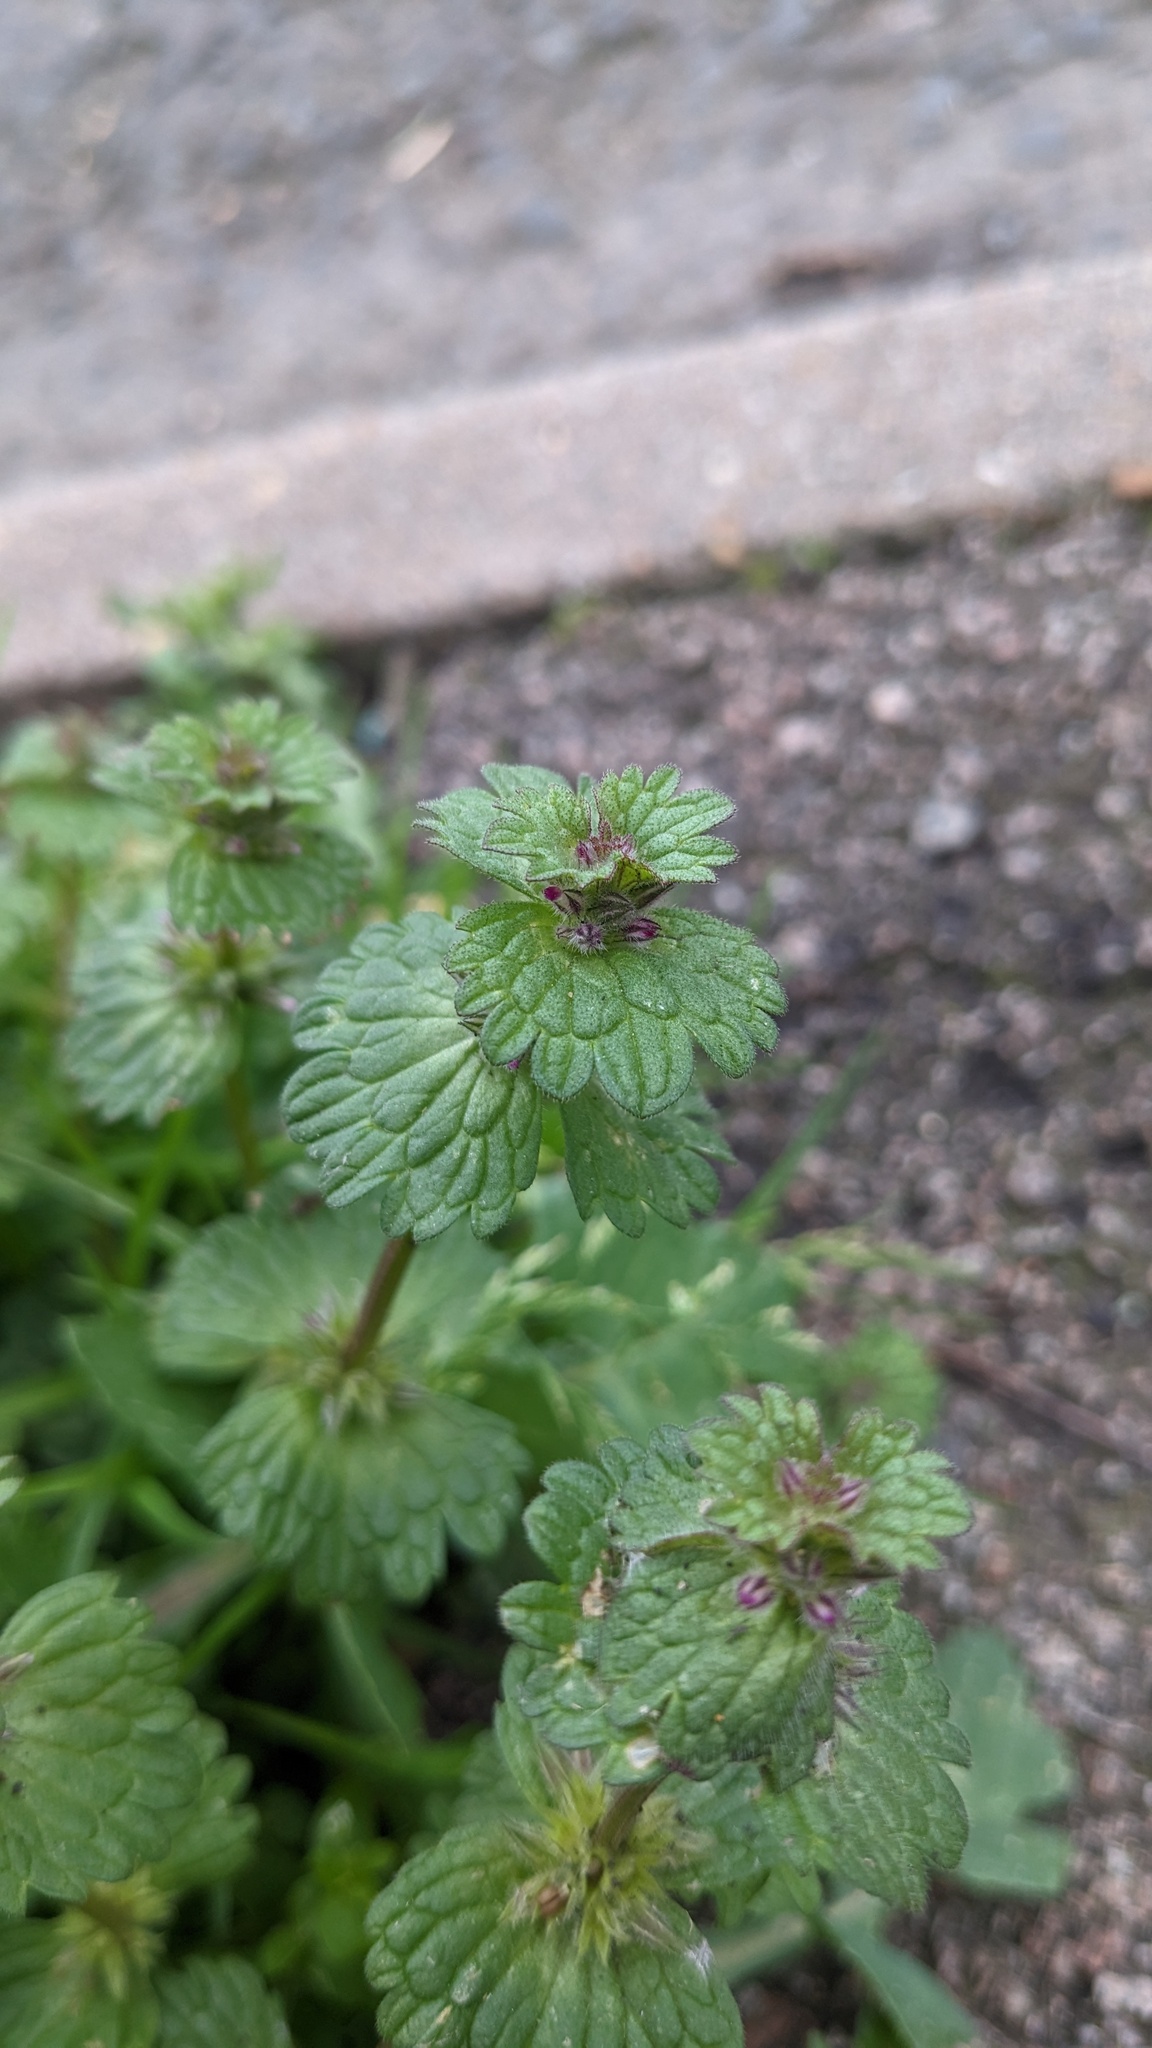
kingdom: Plantae
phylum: Tracheophyta
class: Magnoliopsida
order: Lamiales
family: Lamiaceae
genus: Lamium
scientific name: Lamium amplexicaule
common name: Henbit dead-nettle
